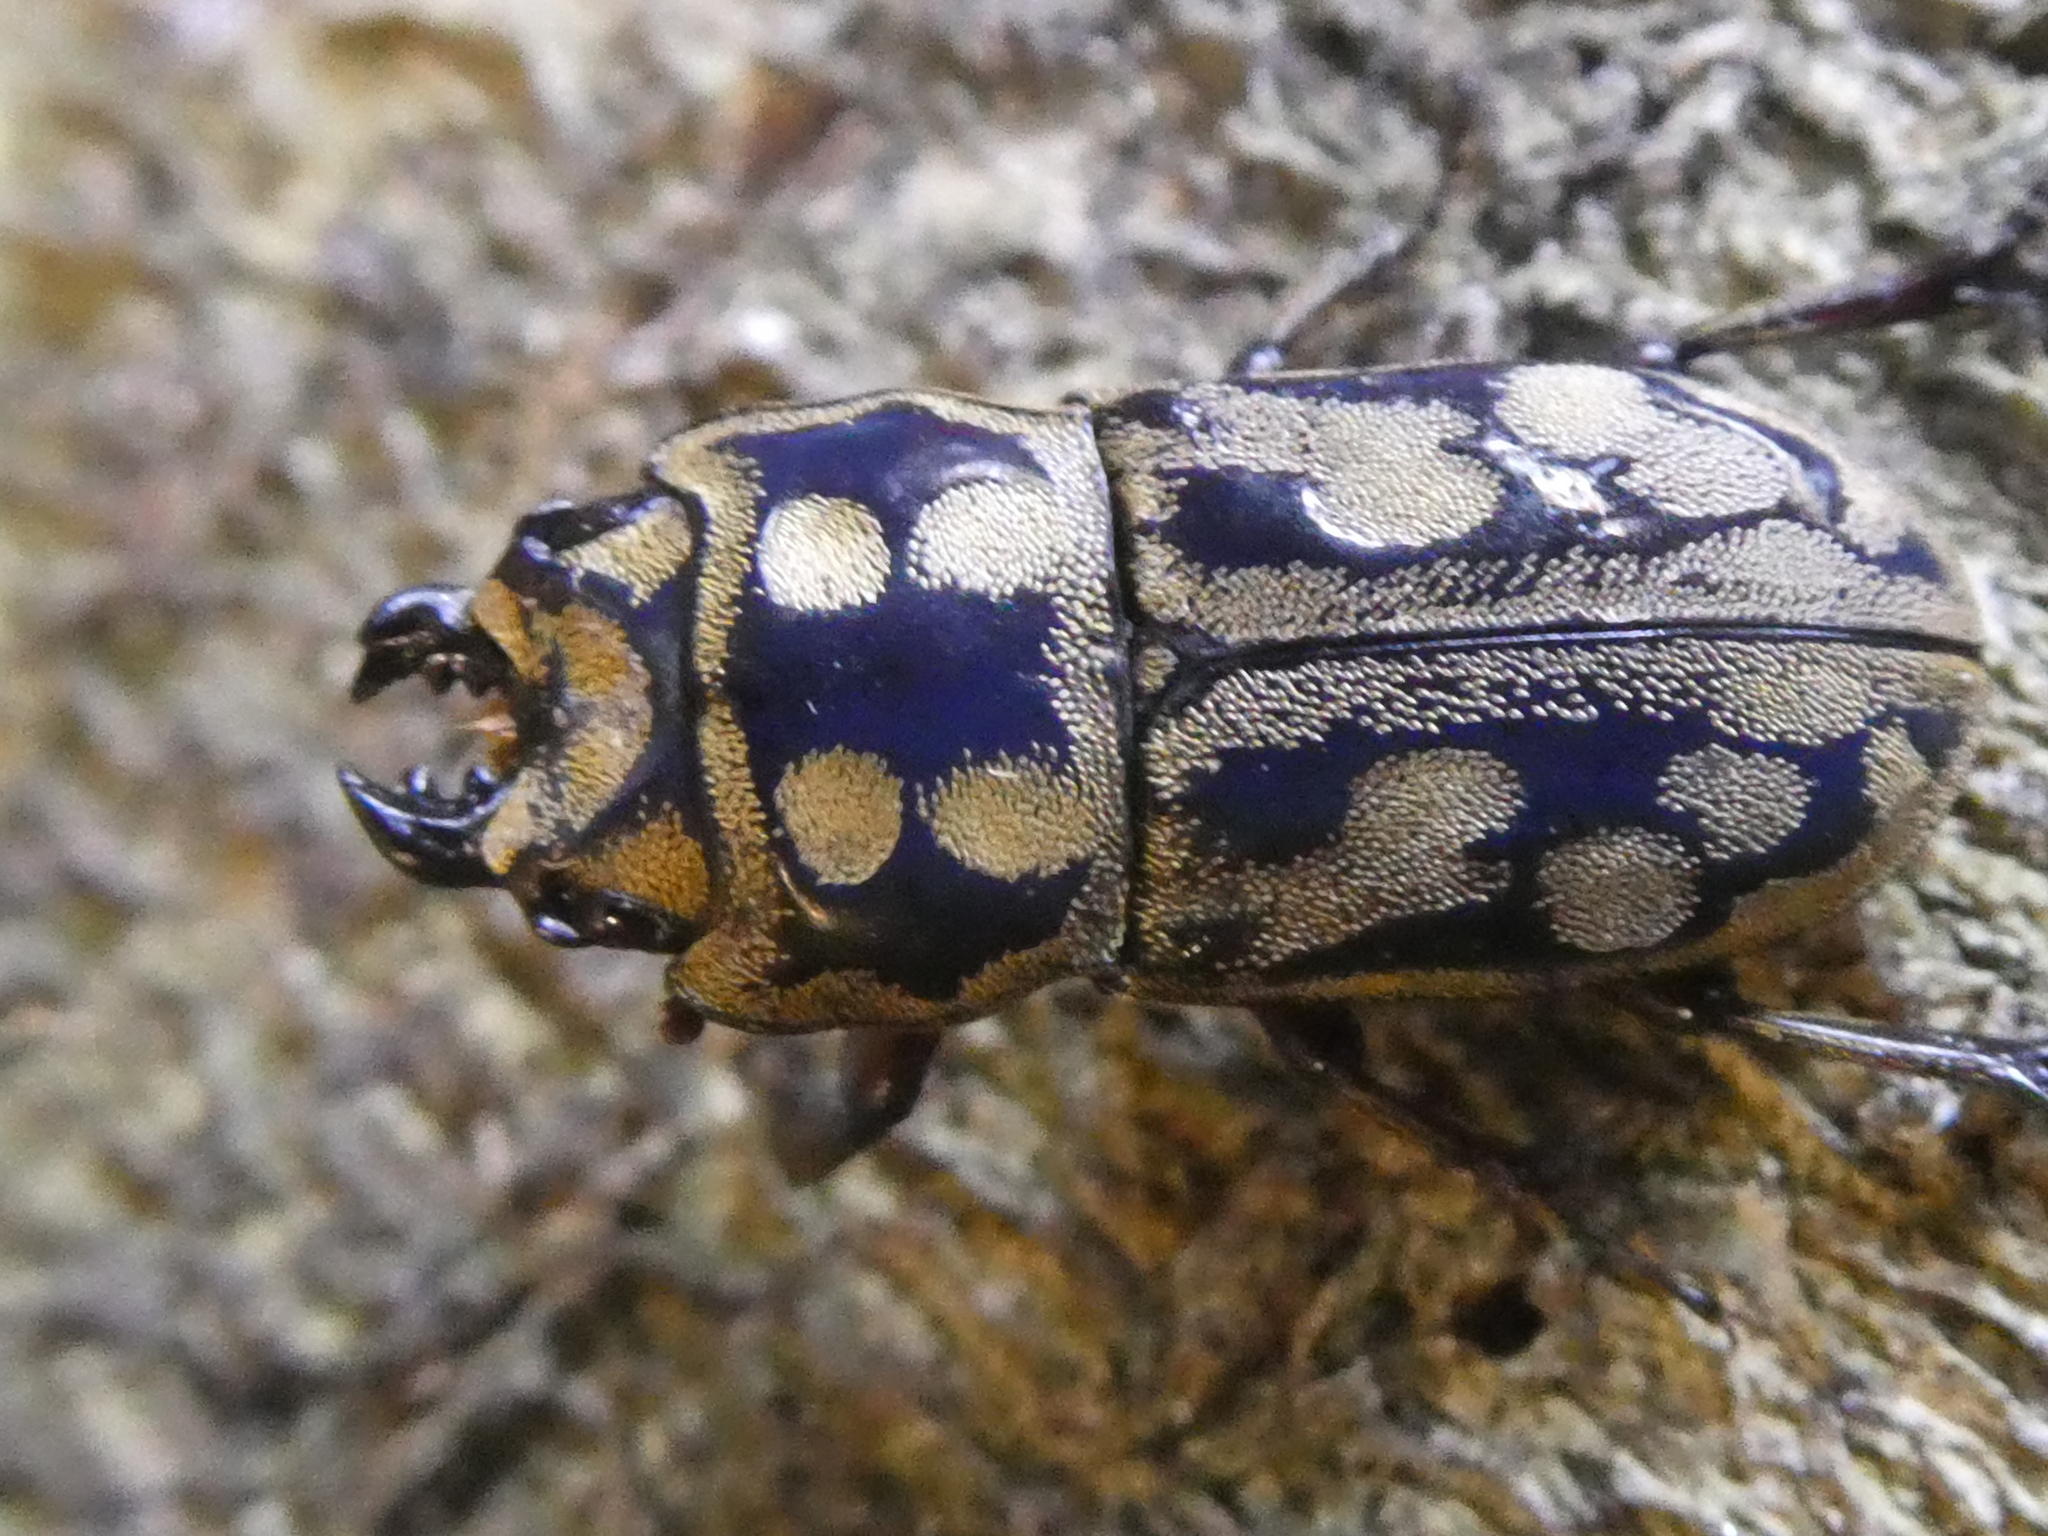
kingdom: Animalia
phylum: Arthropoda
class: Insecta
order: Coleoptera
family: Lucanidae
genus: Paralissotes
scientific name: Paralissotes rufipes
